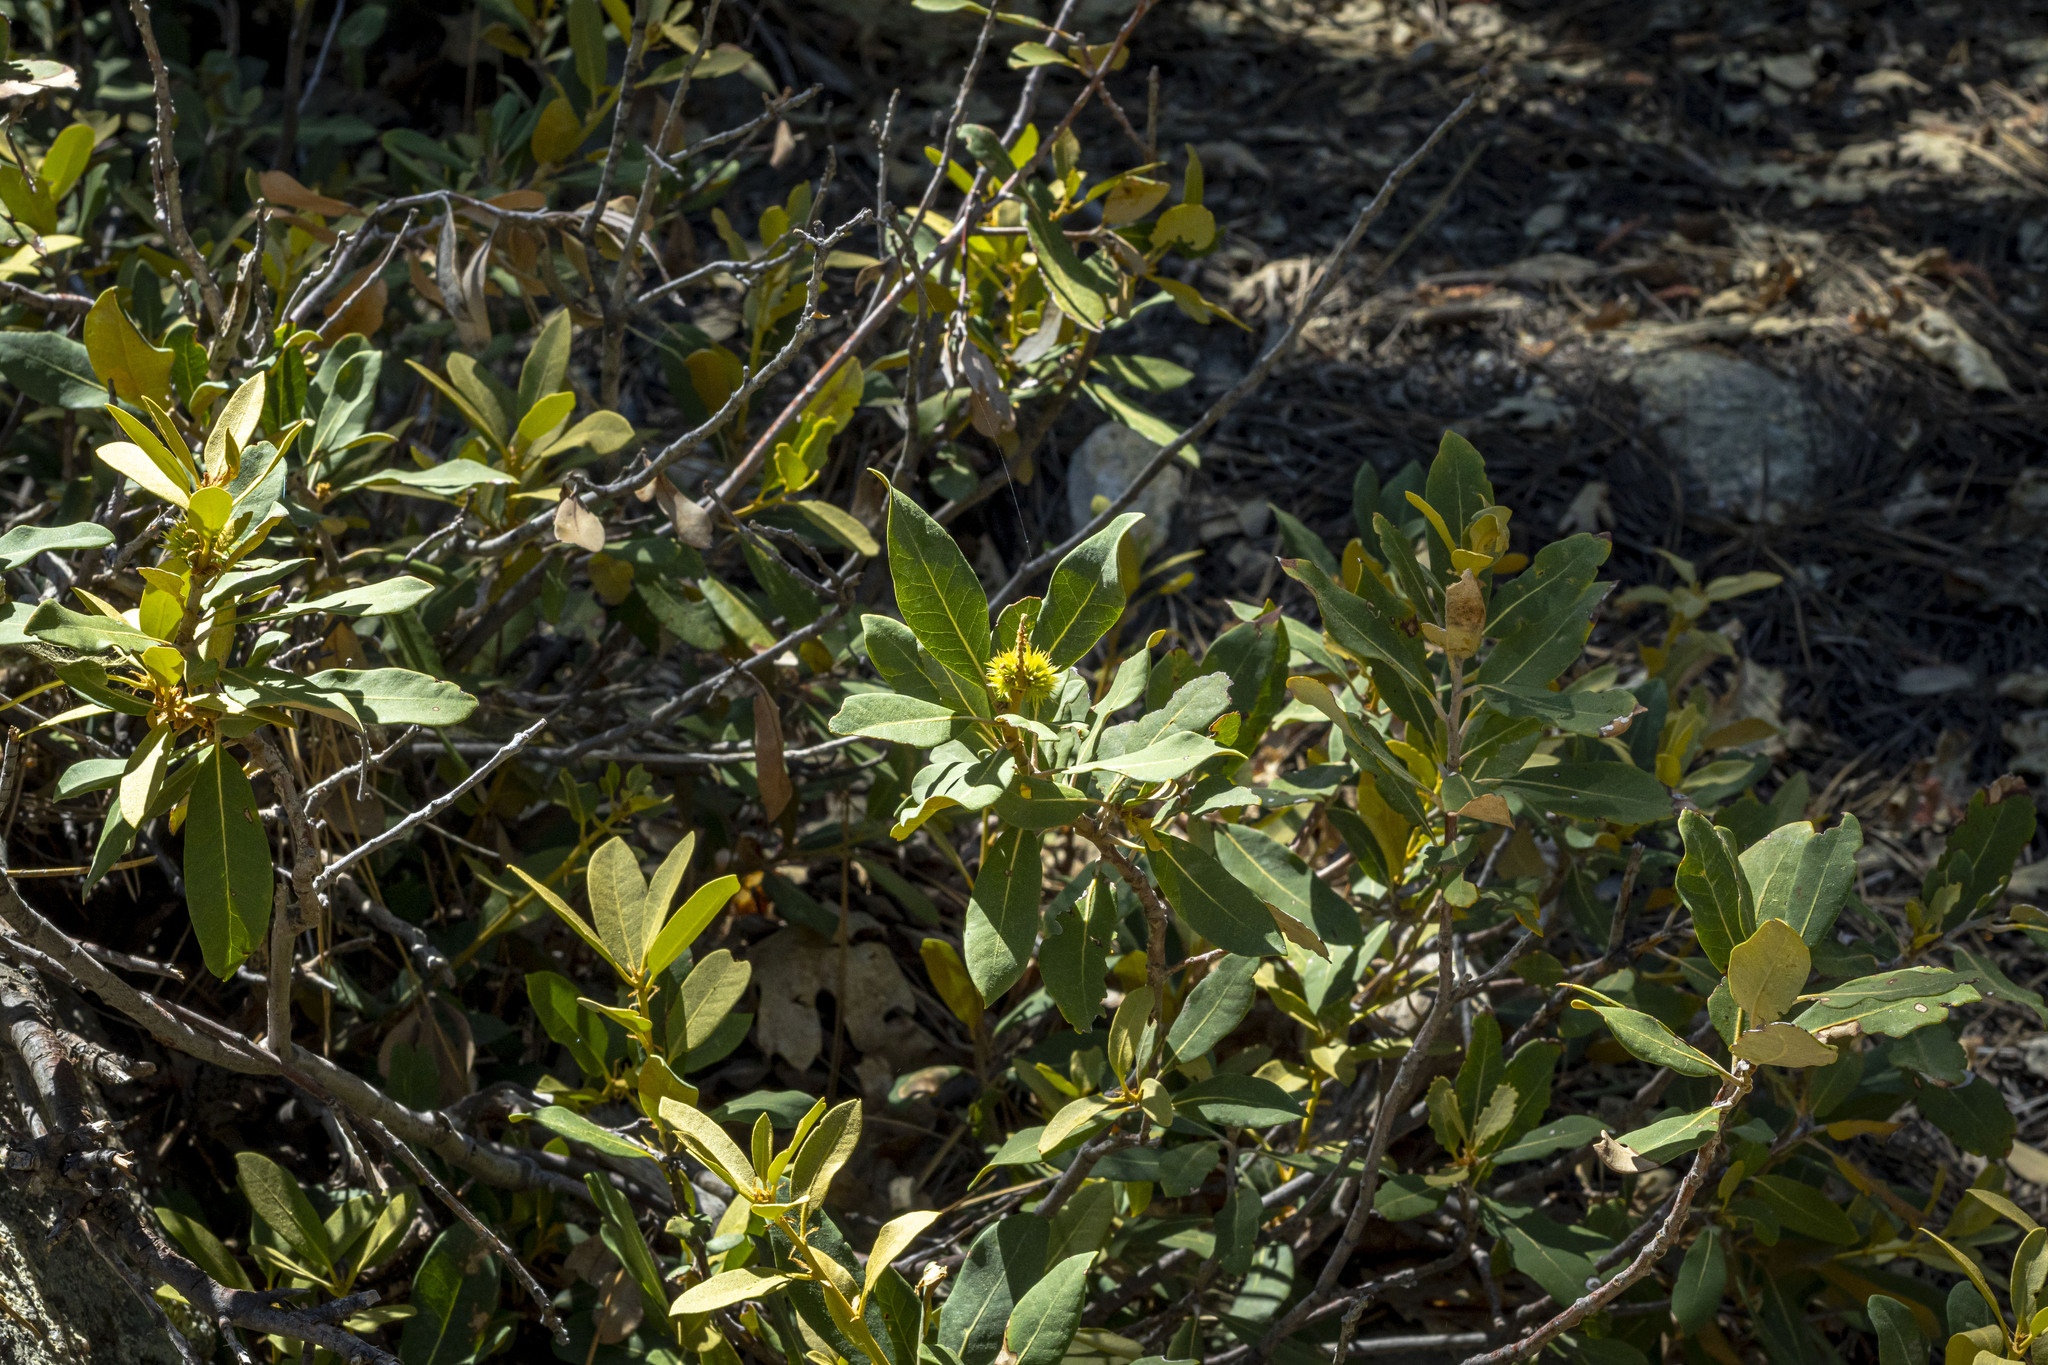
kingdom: Plantae
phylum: Tracheophyta
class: Magnoliopsida
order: Fagales
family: Fagaceae
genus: Chrysolepis
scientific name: Chrysolepis sempervirens
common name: Bush chinquapin
